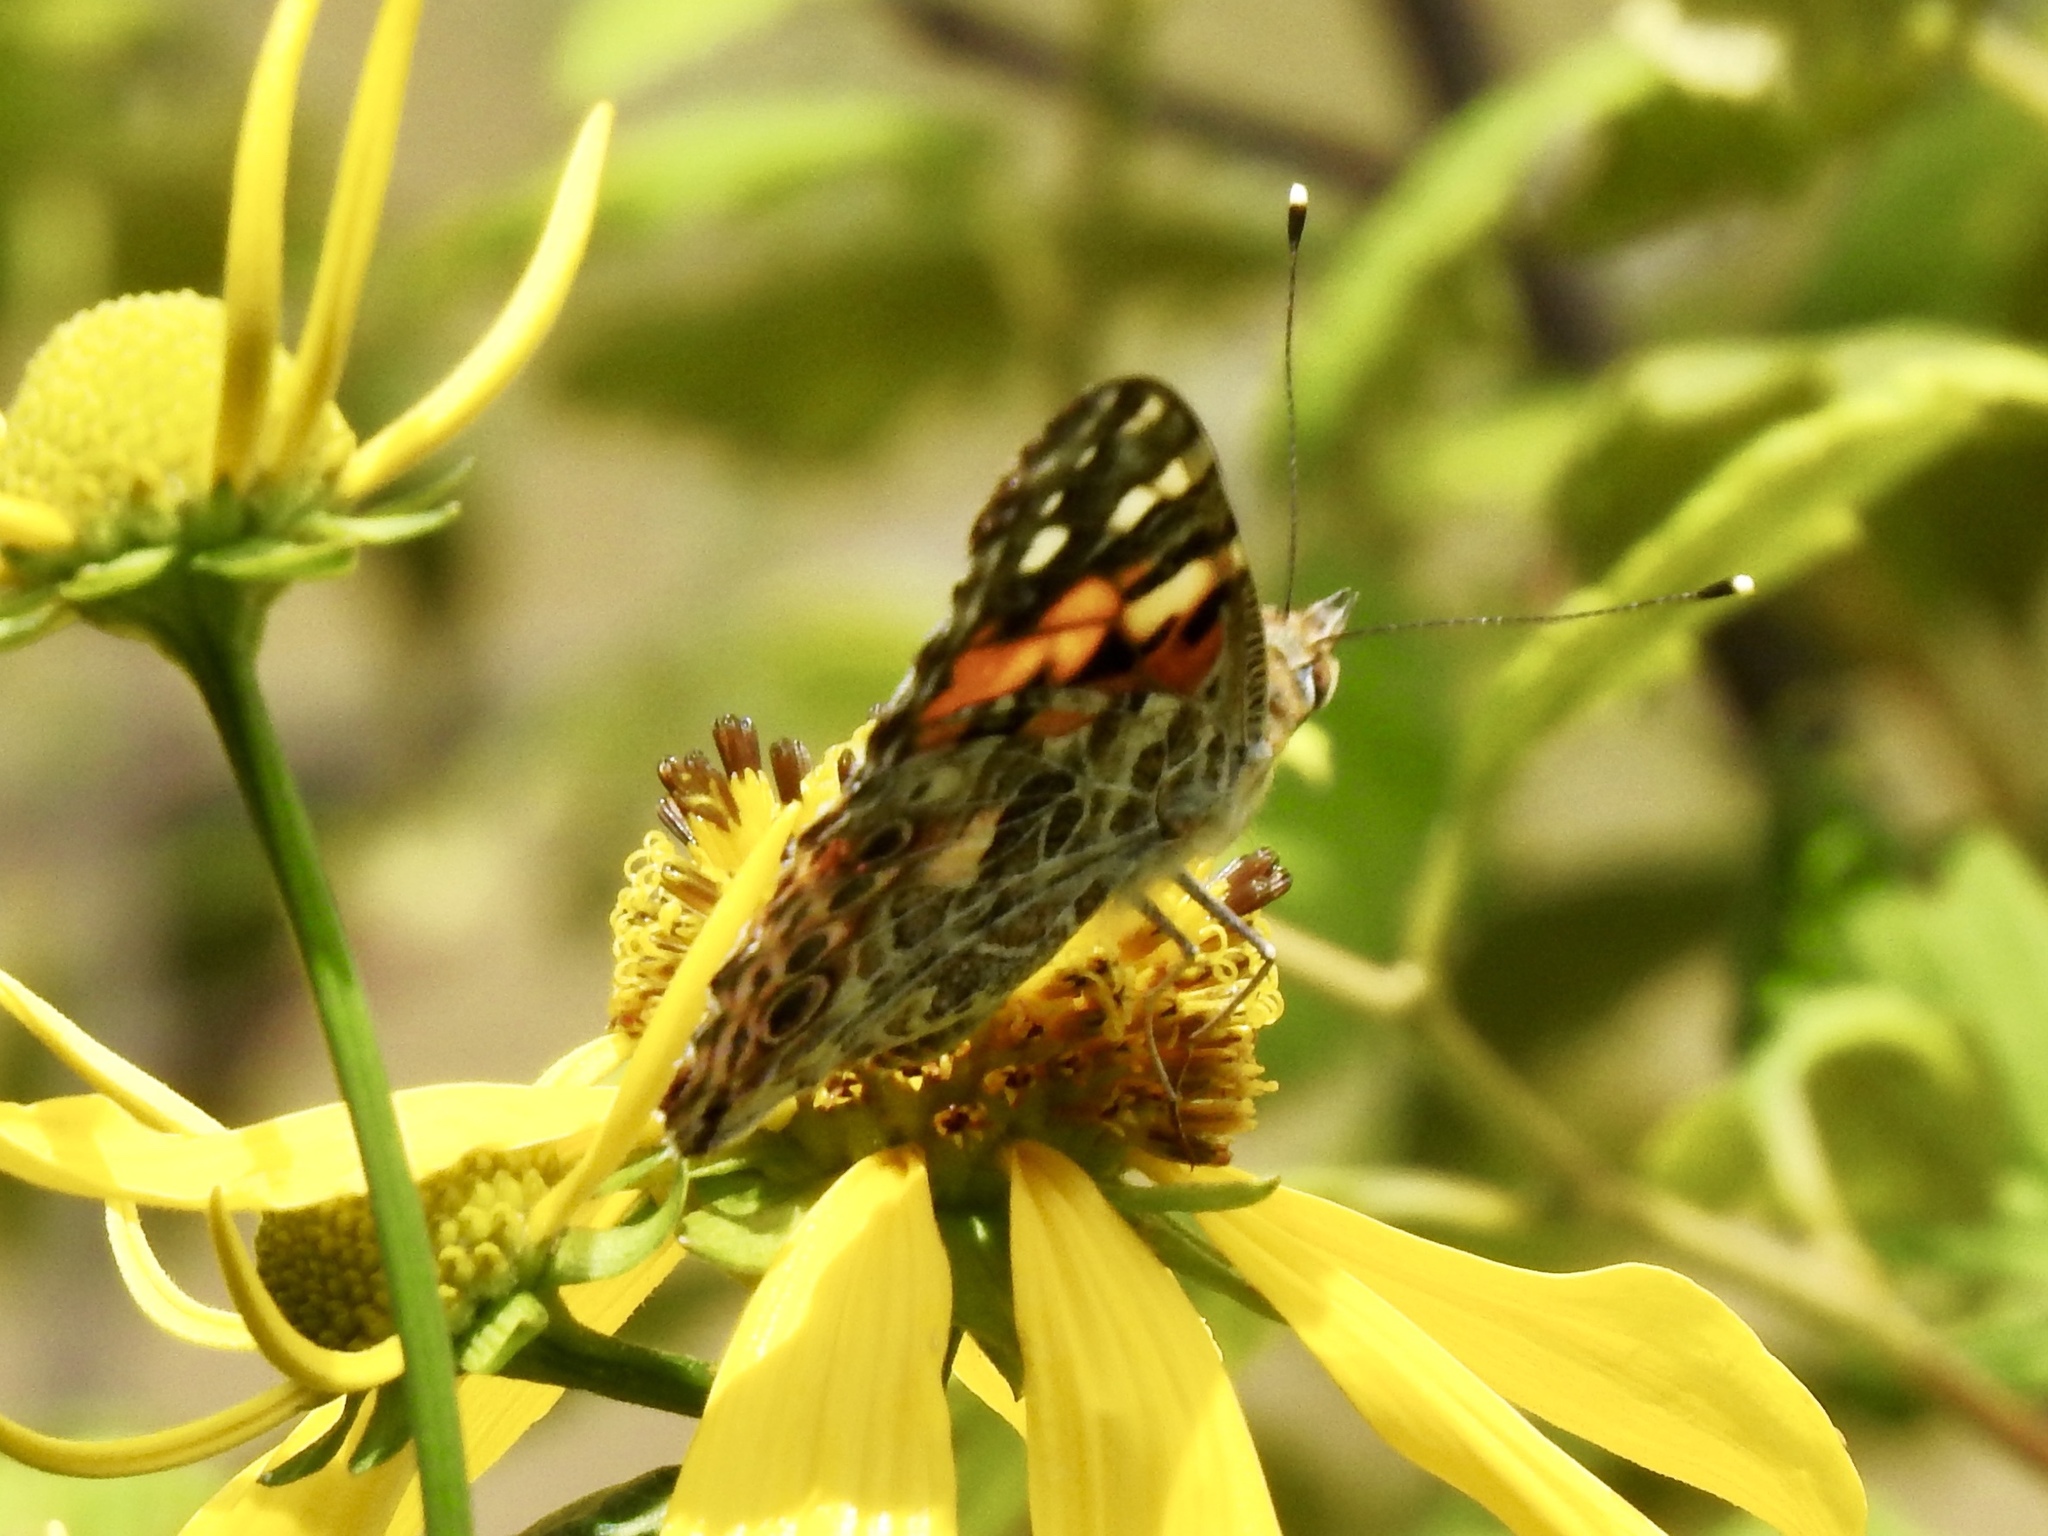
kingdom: Animalia
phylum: Arthropoda
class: Insecta
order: Lepidoptera
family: Nymphalidae
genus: Vanessa
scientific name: Vanessa cardui
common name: Painted lady
